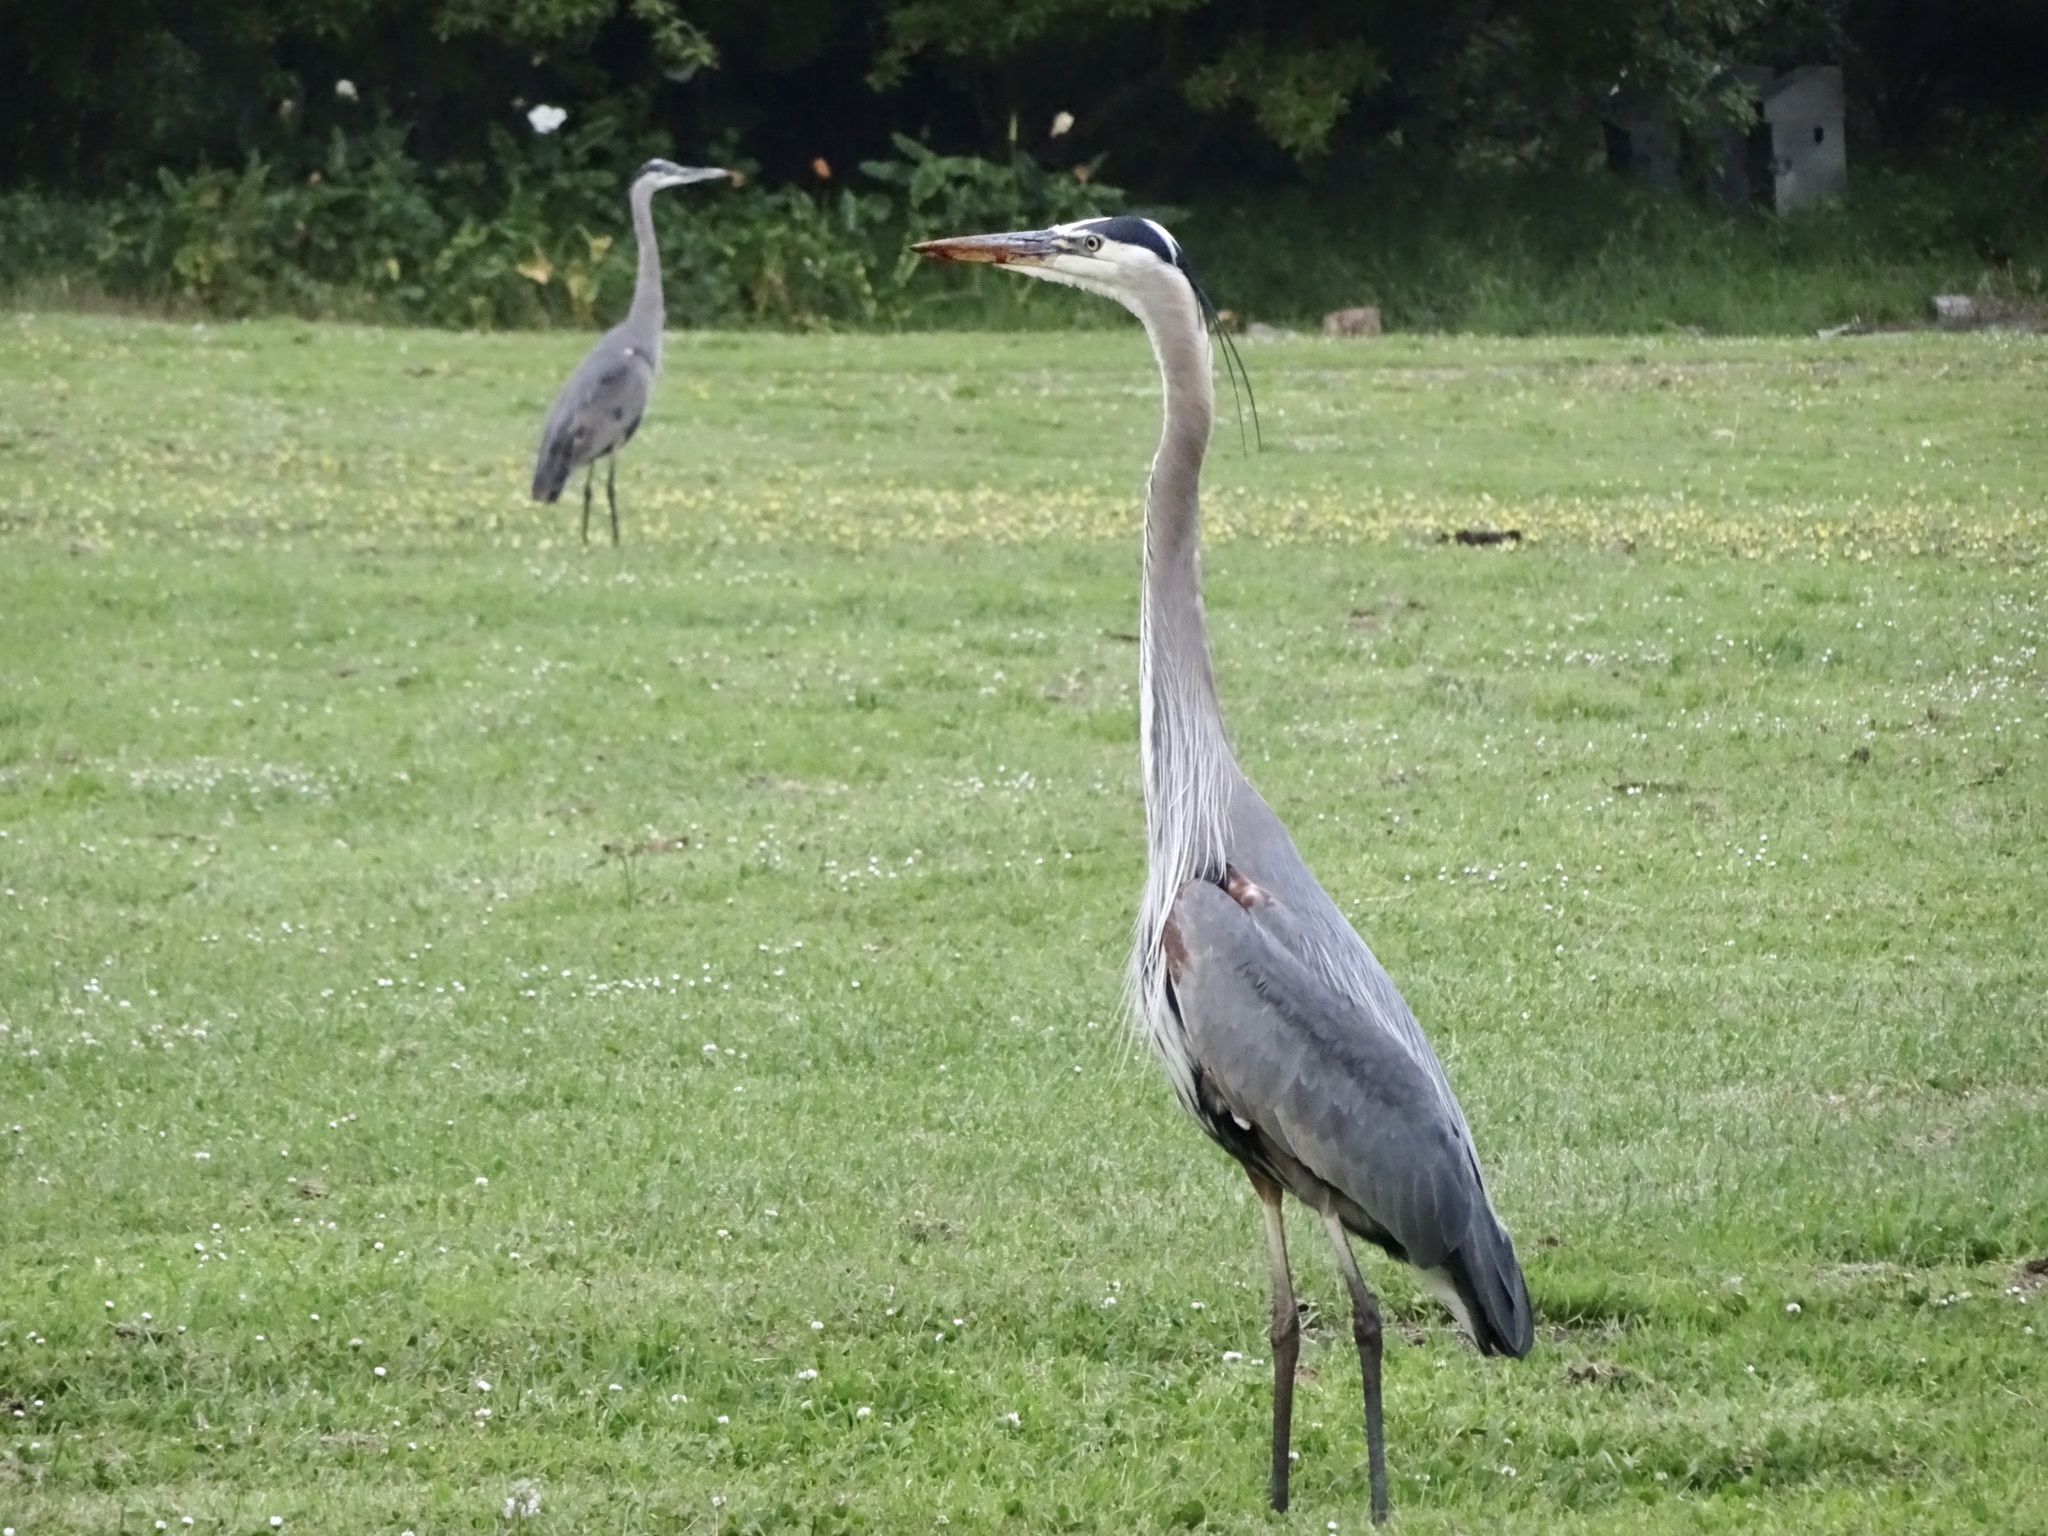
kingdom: Animalia
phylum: Chordata
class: Aves
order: Pelecaniformes
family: Ardeidae
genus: Ardea
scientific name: Ardea herodias
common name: Great blue heron
